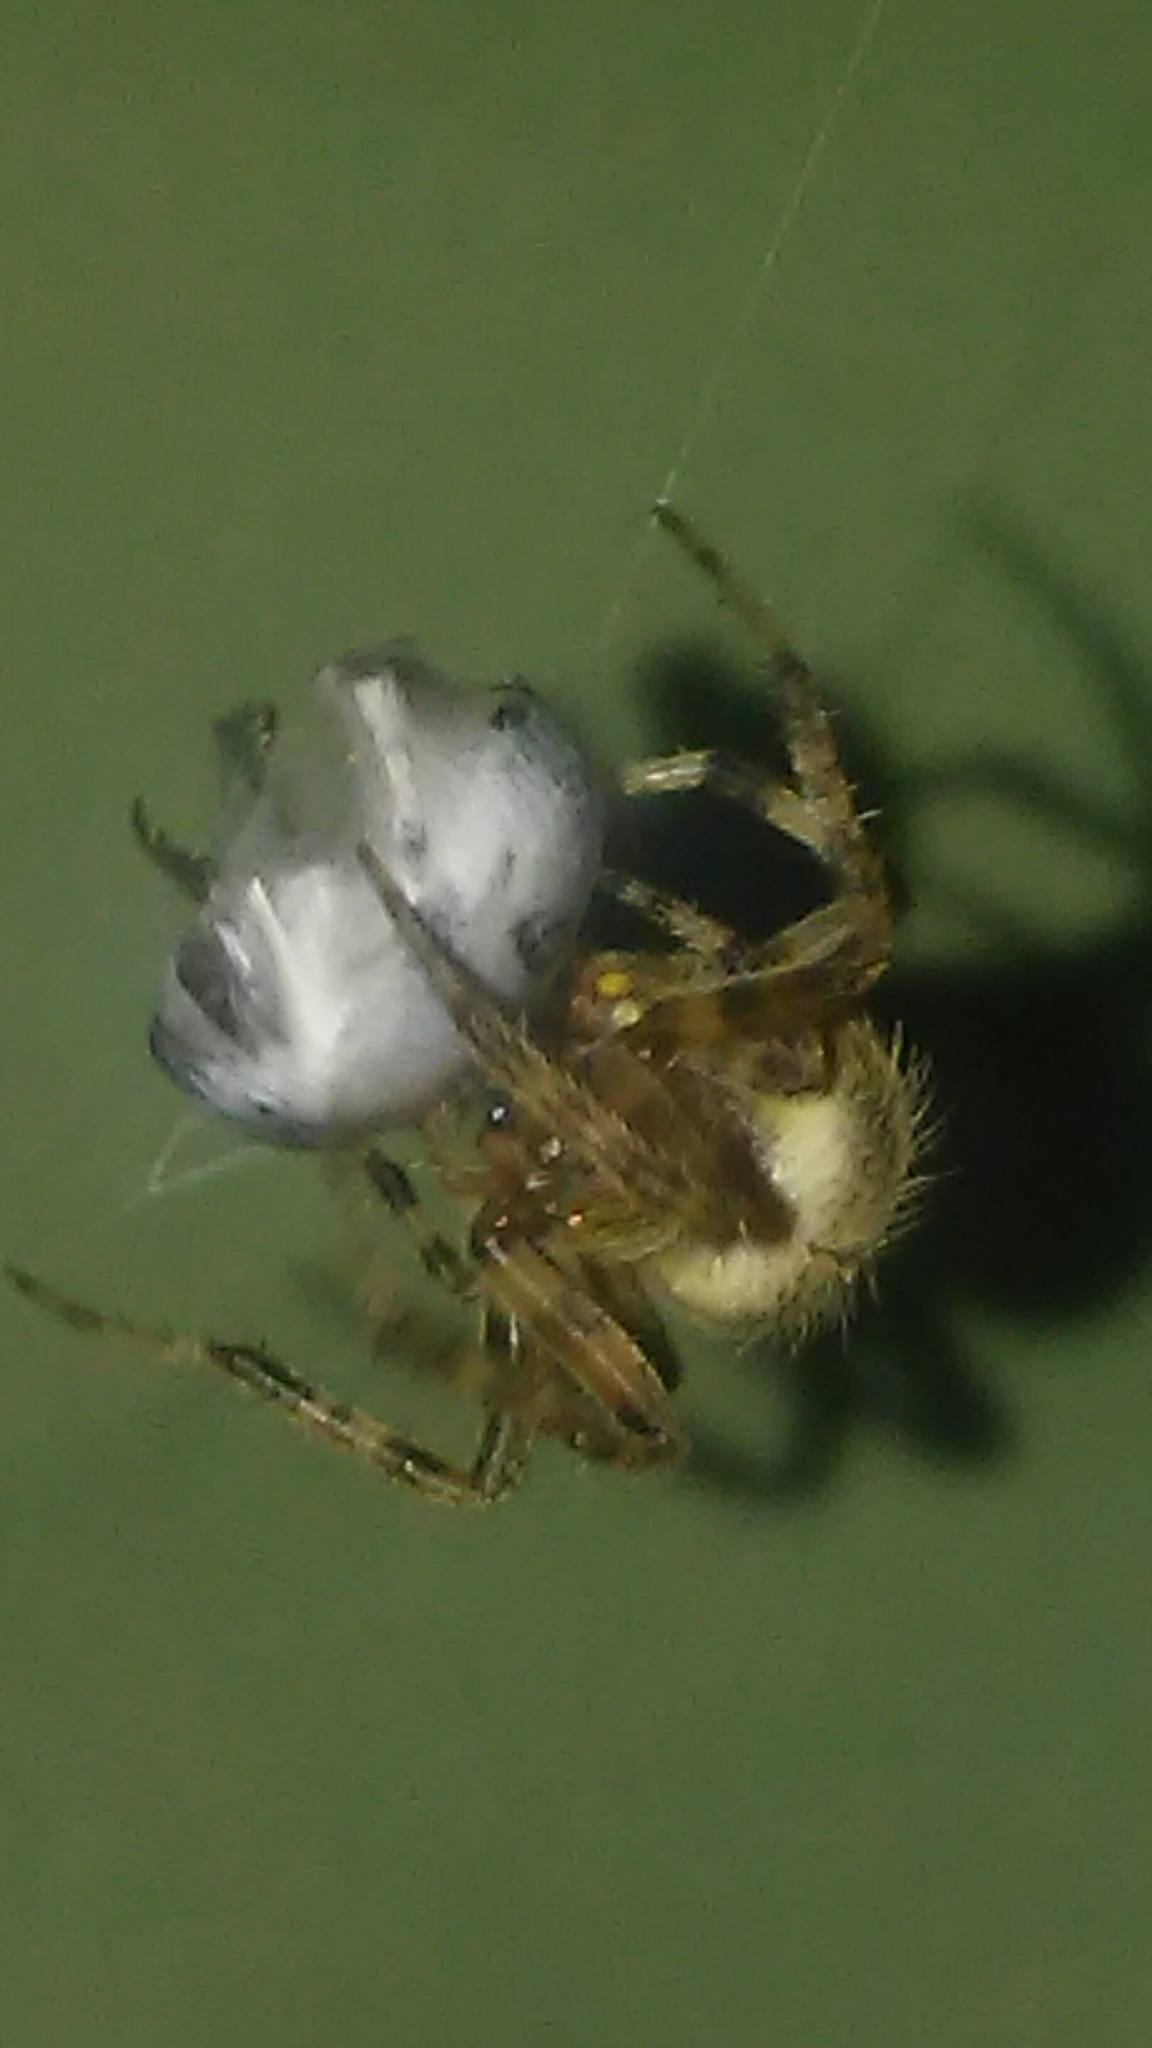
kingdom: Animalia
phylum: Arthropoda
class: Arachnida
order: Araneae
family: Araneidae
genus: Neoscona
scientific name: Neoscona crucifera
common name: Spotted orbweaver
